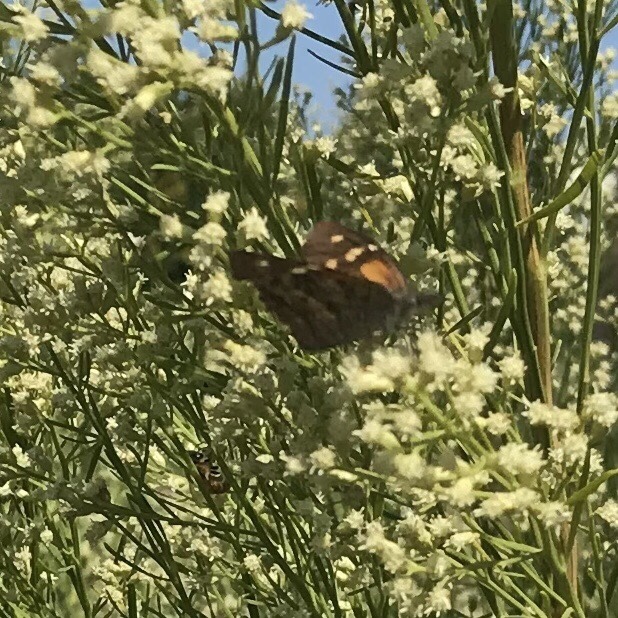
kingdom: Animalia
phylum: Arthropoda
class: Insecta
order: Lepidoptera
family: Nymphalidae
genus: Libytheana
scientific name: Libytheana carinenta
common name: American snout
